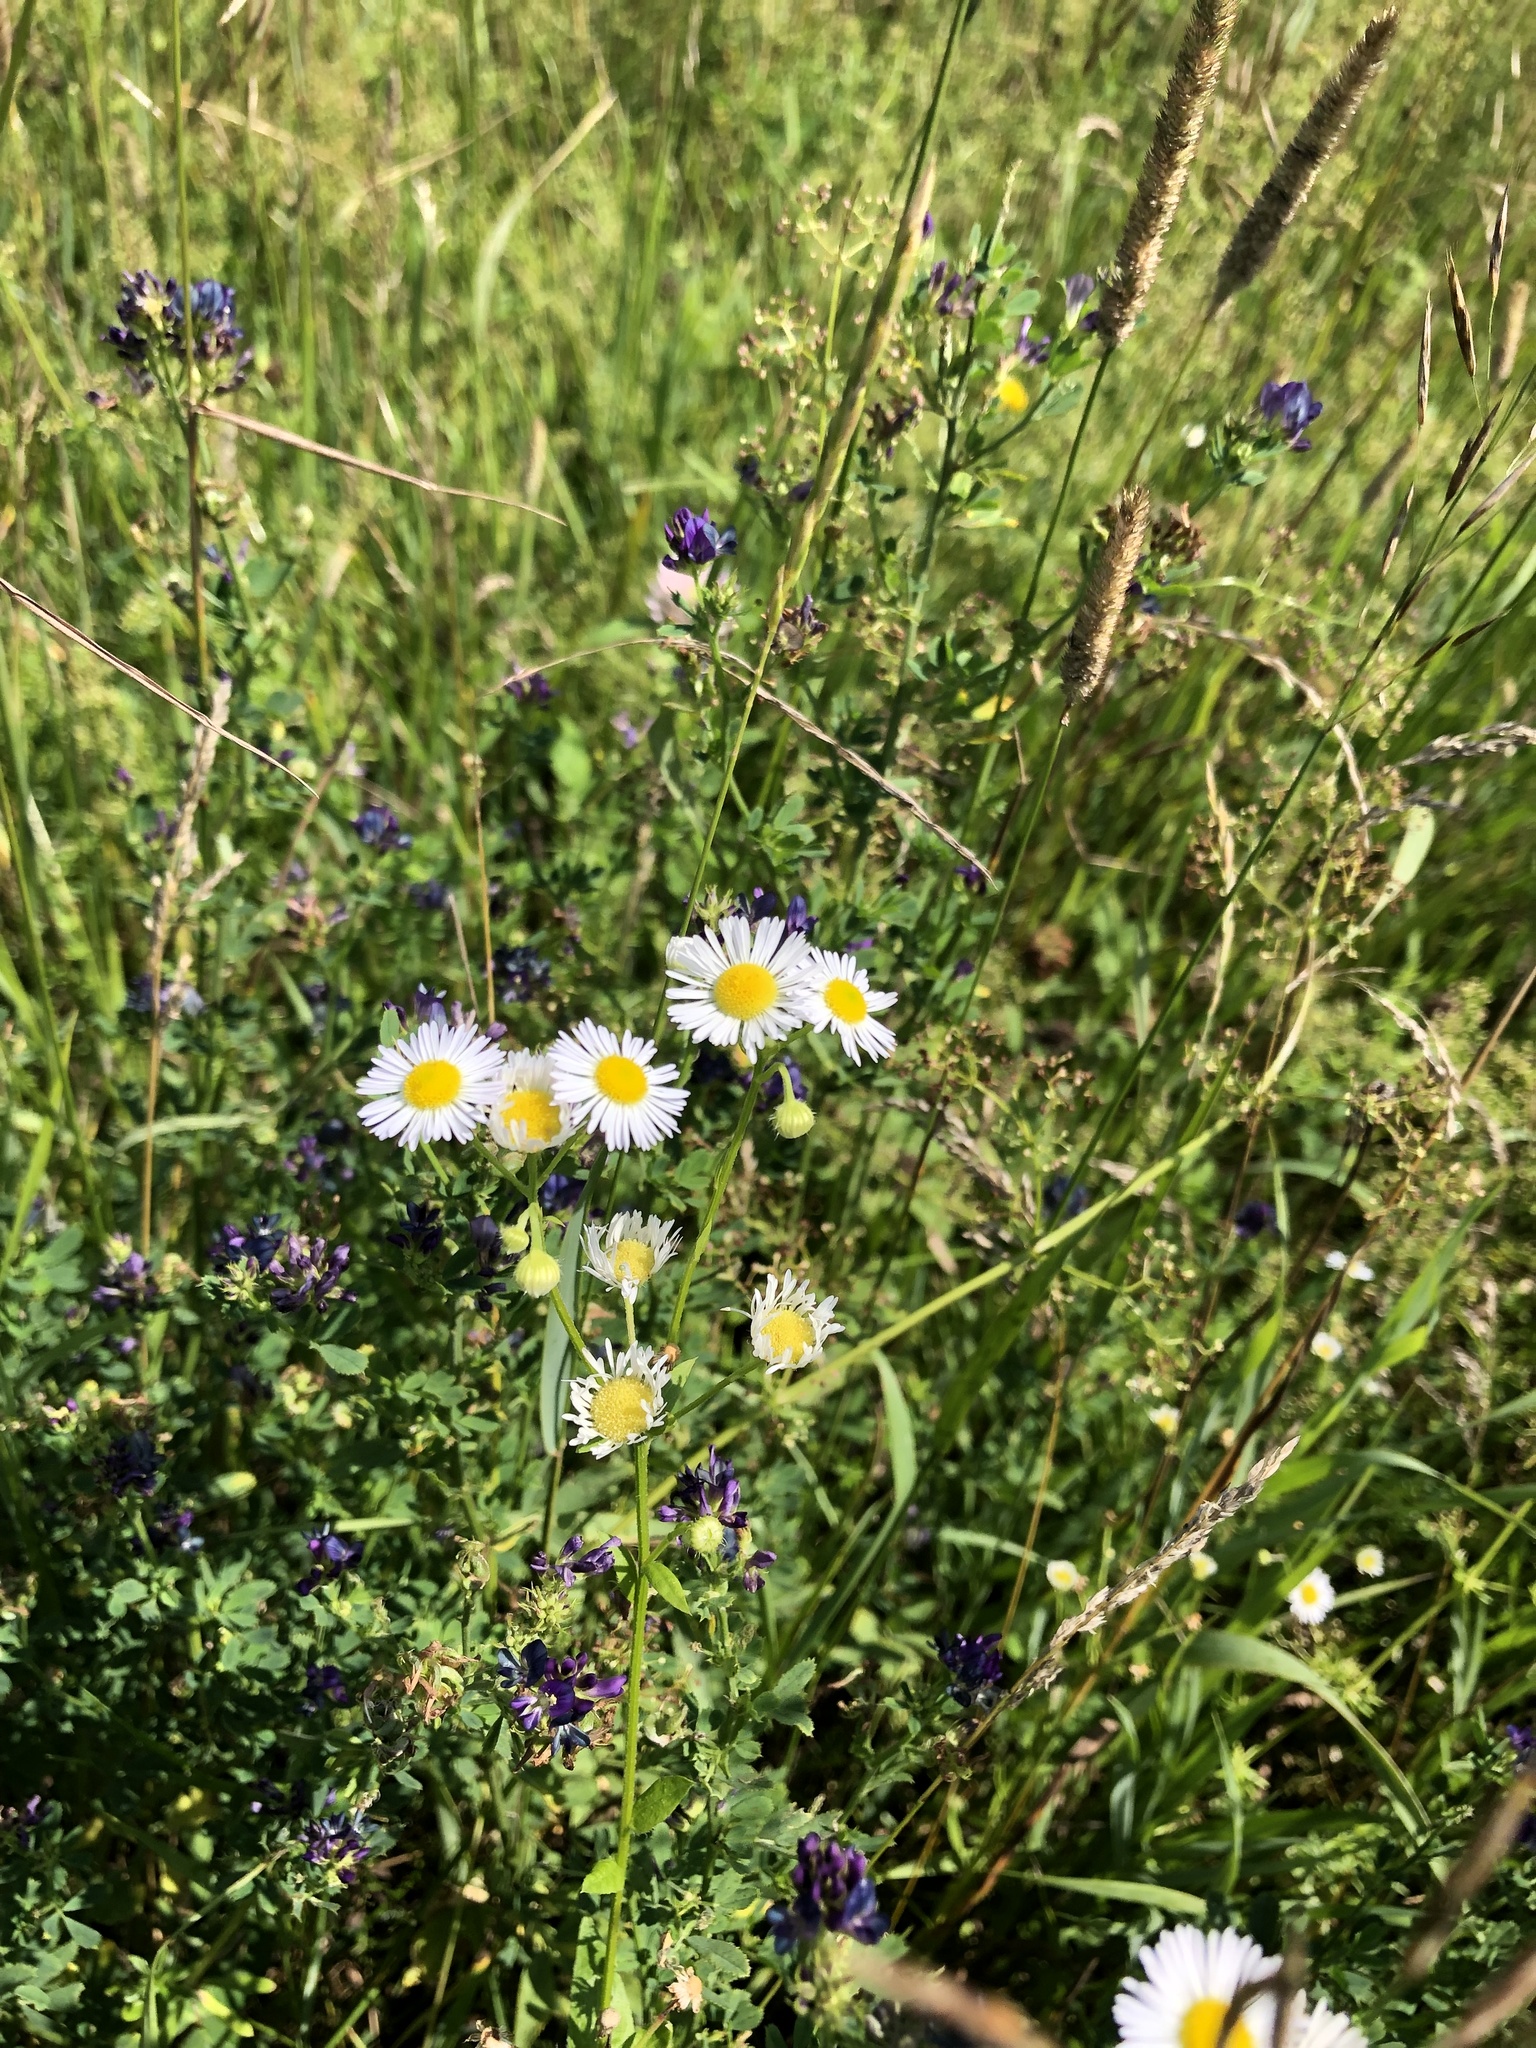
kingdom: Plantae
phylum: Tracheophyta
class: Magnoliopsida
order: Asterales
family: Asteraceae
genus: Erigeron
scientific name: Erigeron strigosus
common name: Common eastern fleabane
